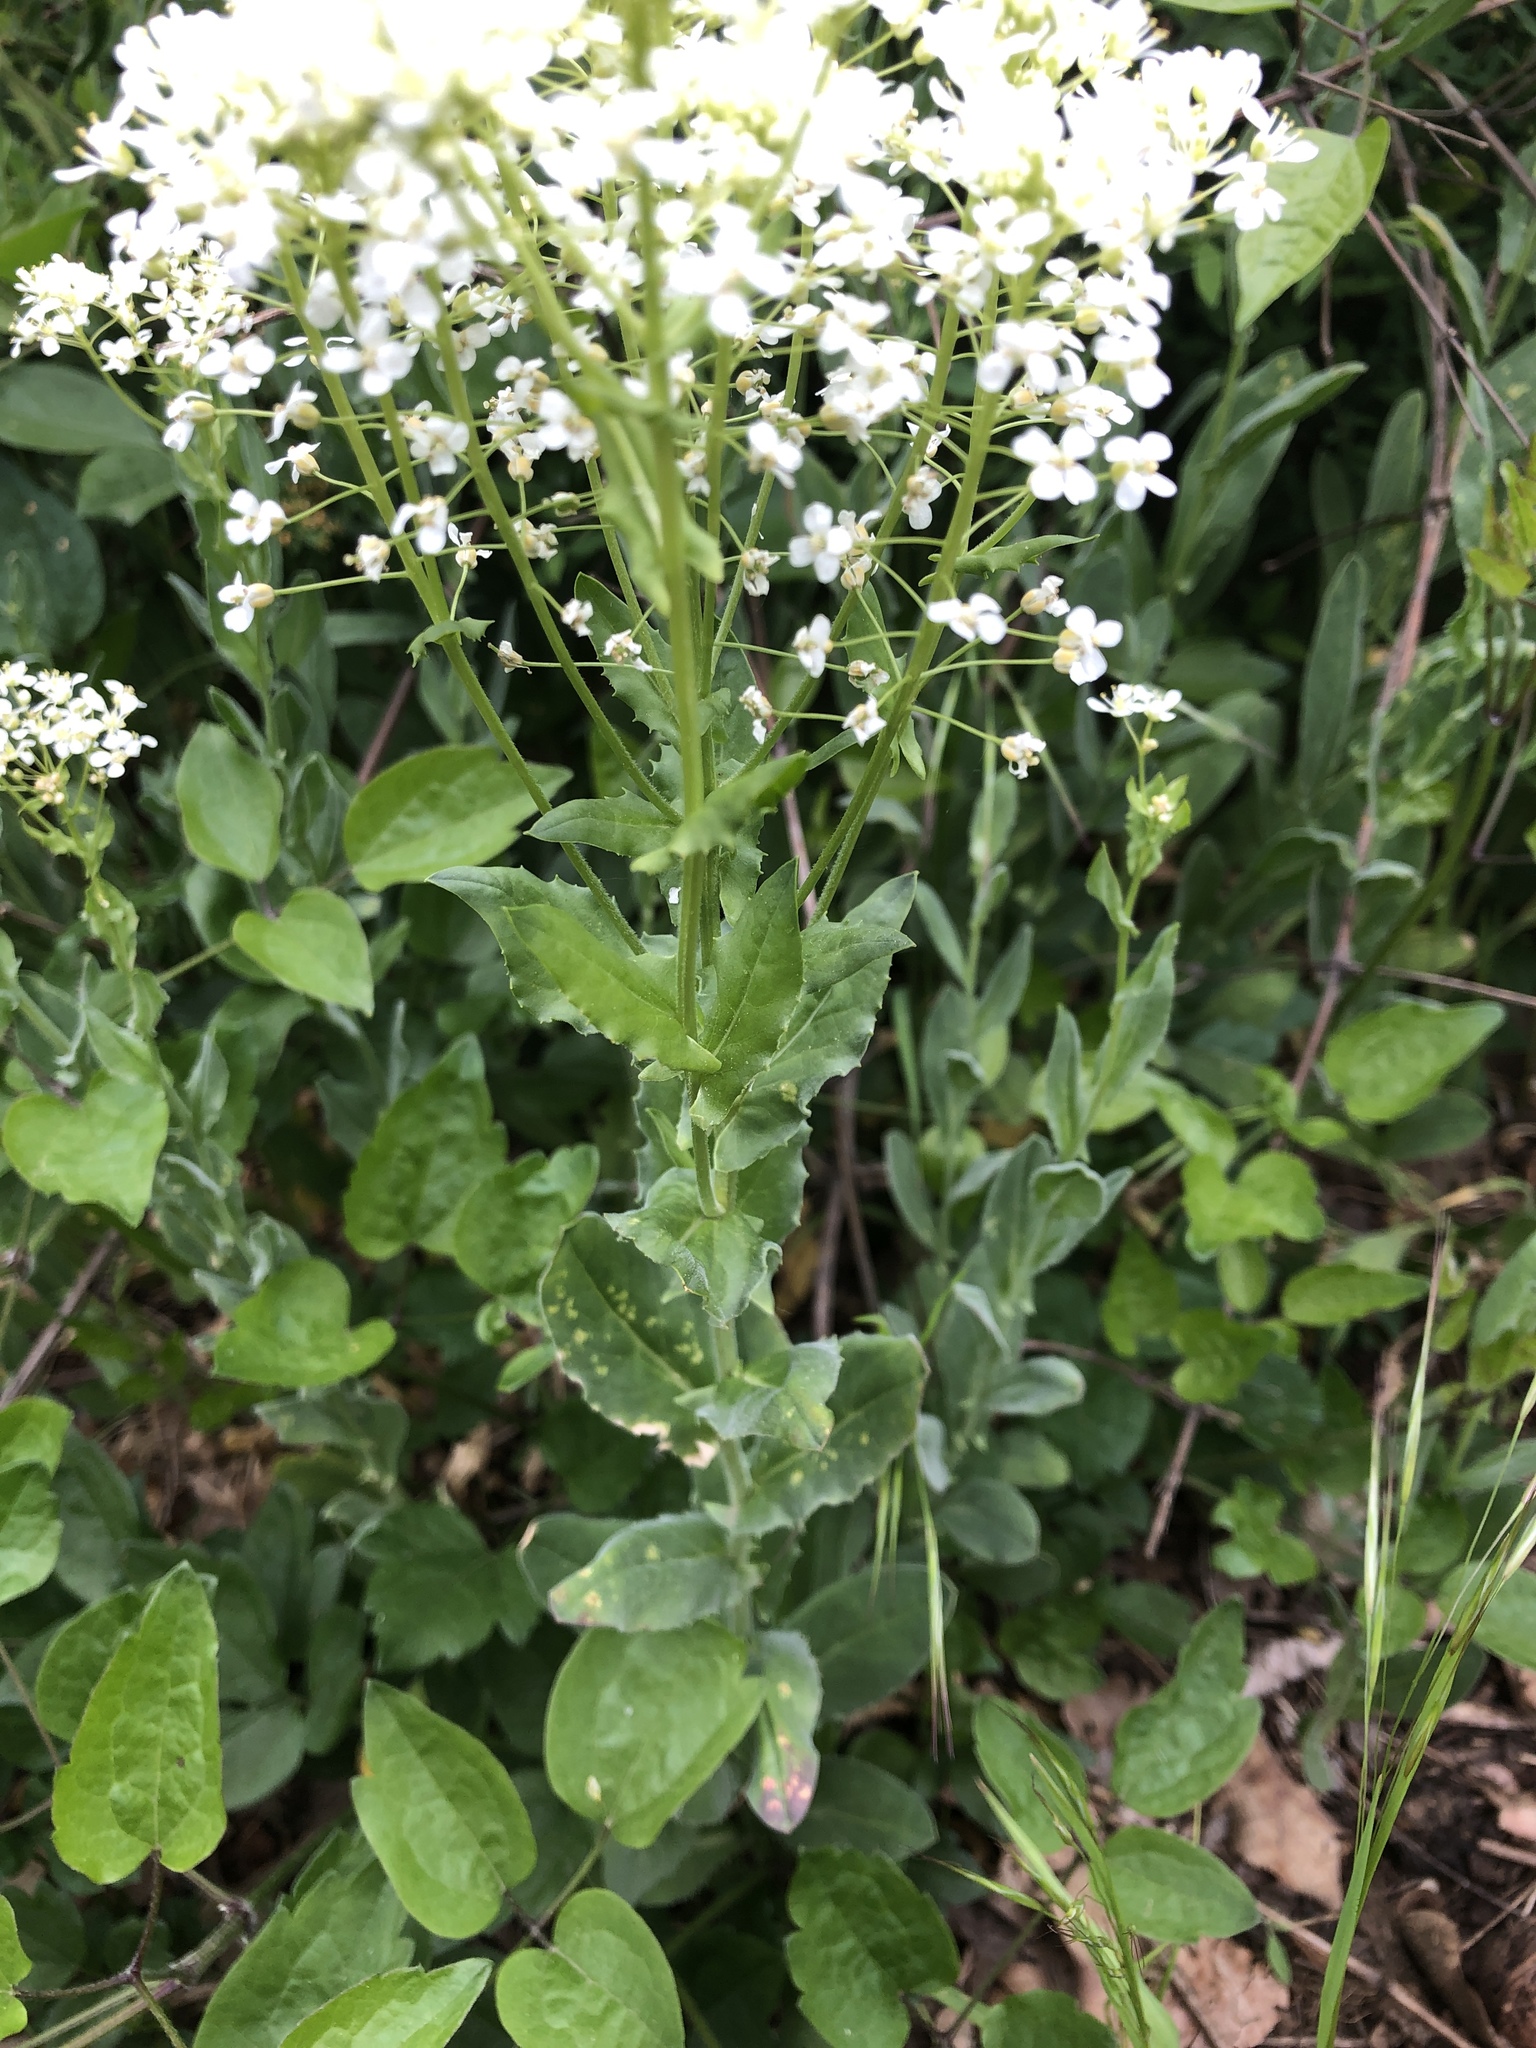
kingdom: Plantae
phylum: Tracheophyta
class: Magnoliopsida
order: Brassicales
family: Brassicaceae
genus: Lepidium
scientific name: Lepidium draba
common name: Hoary cress
